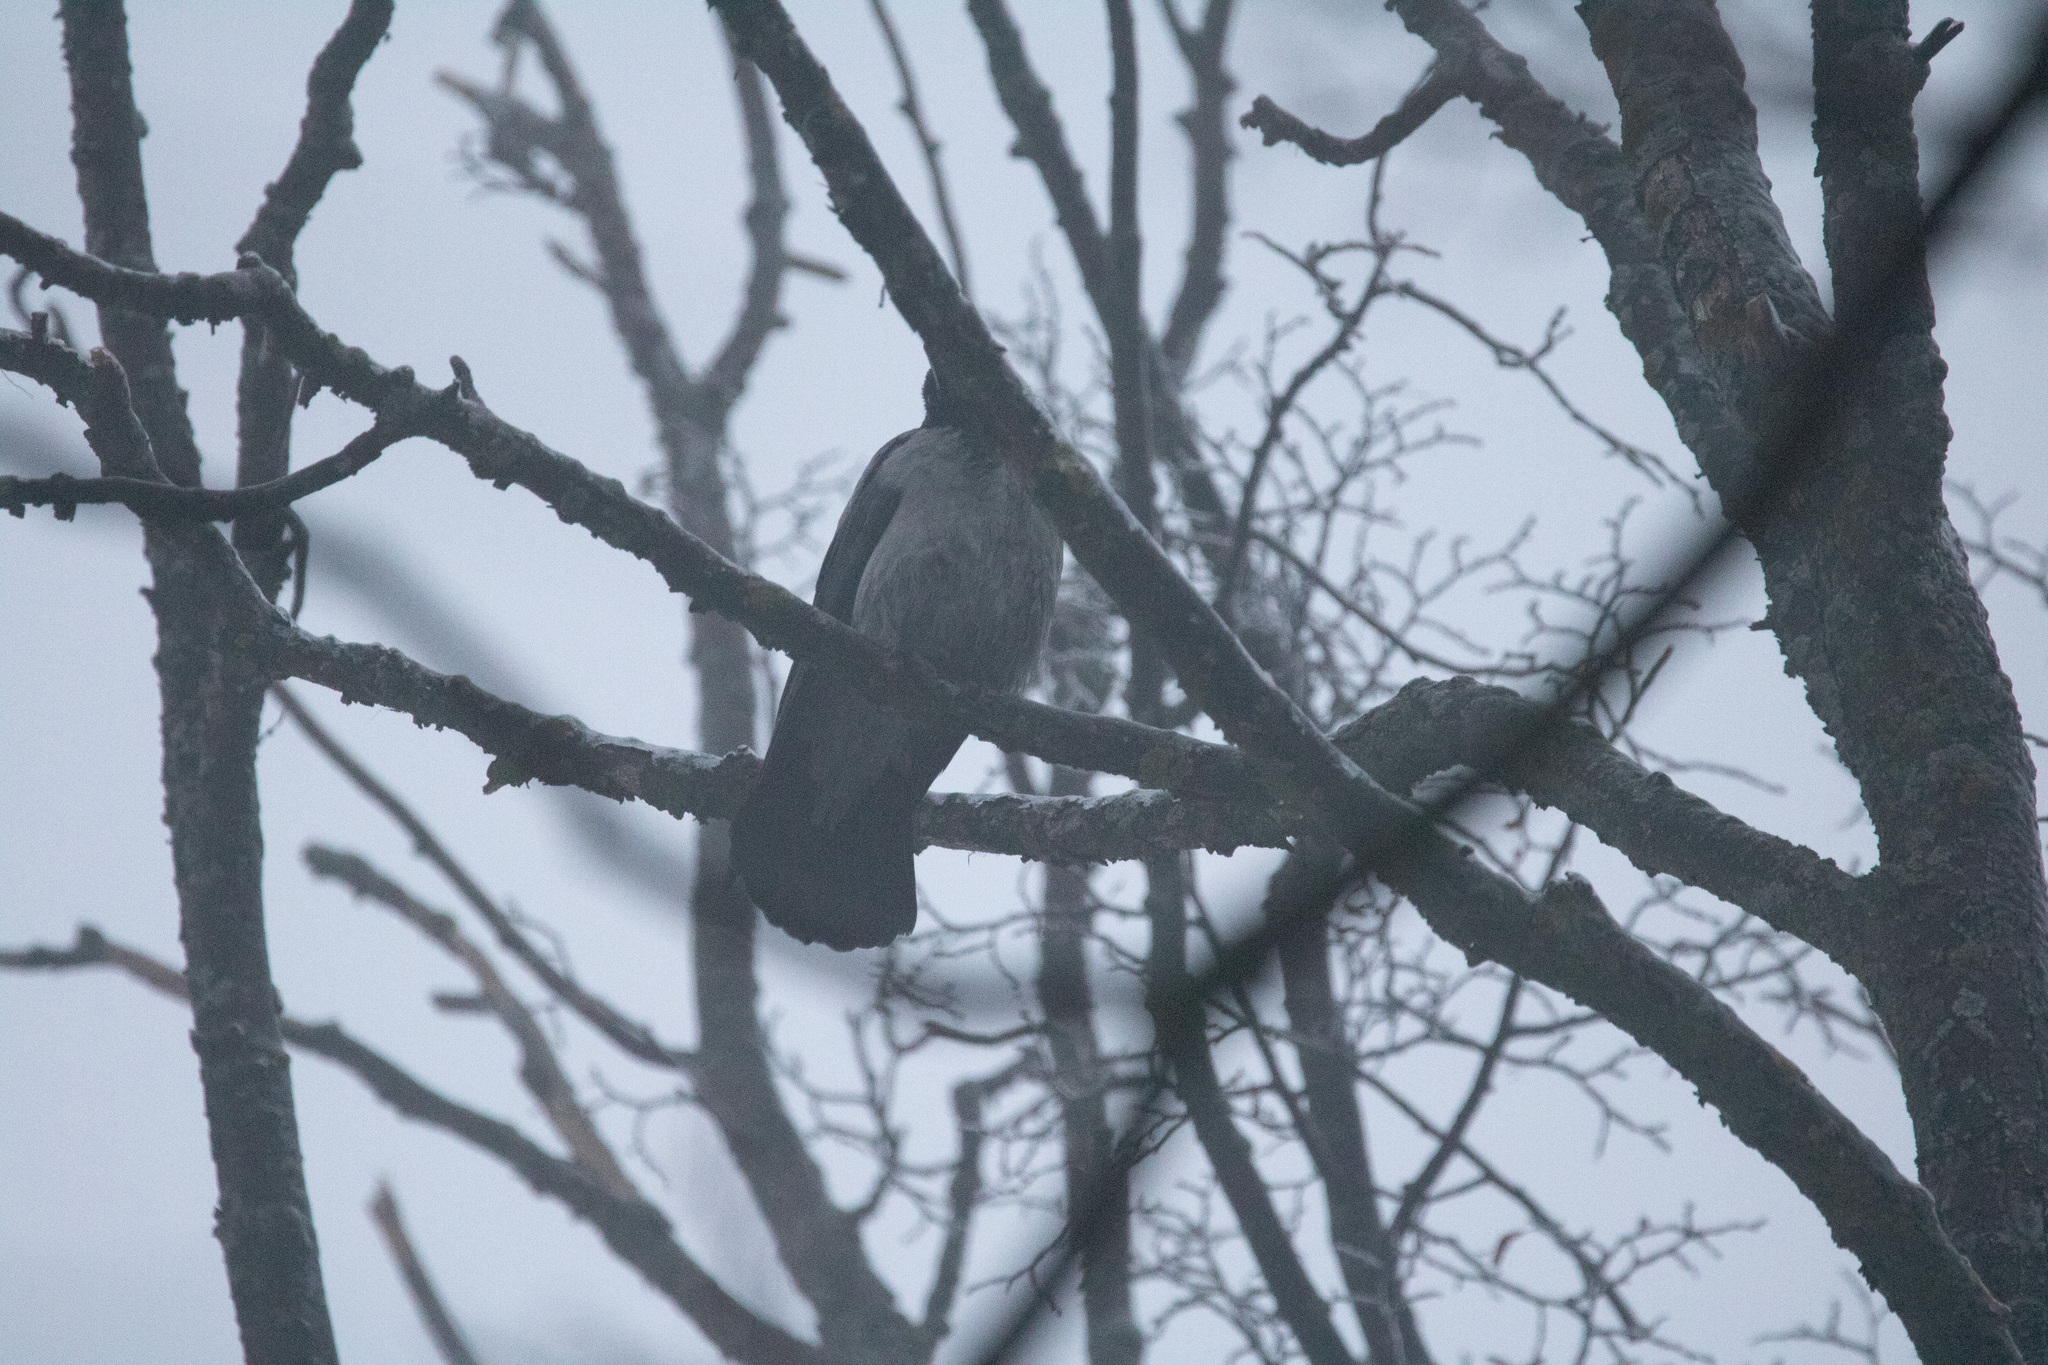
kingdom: Animalia
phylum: Chordata
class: Aves
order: Passeriformes
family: Corvidae
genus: Corvus
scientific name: Corvus cornix
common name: Hooded crow
